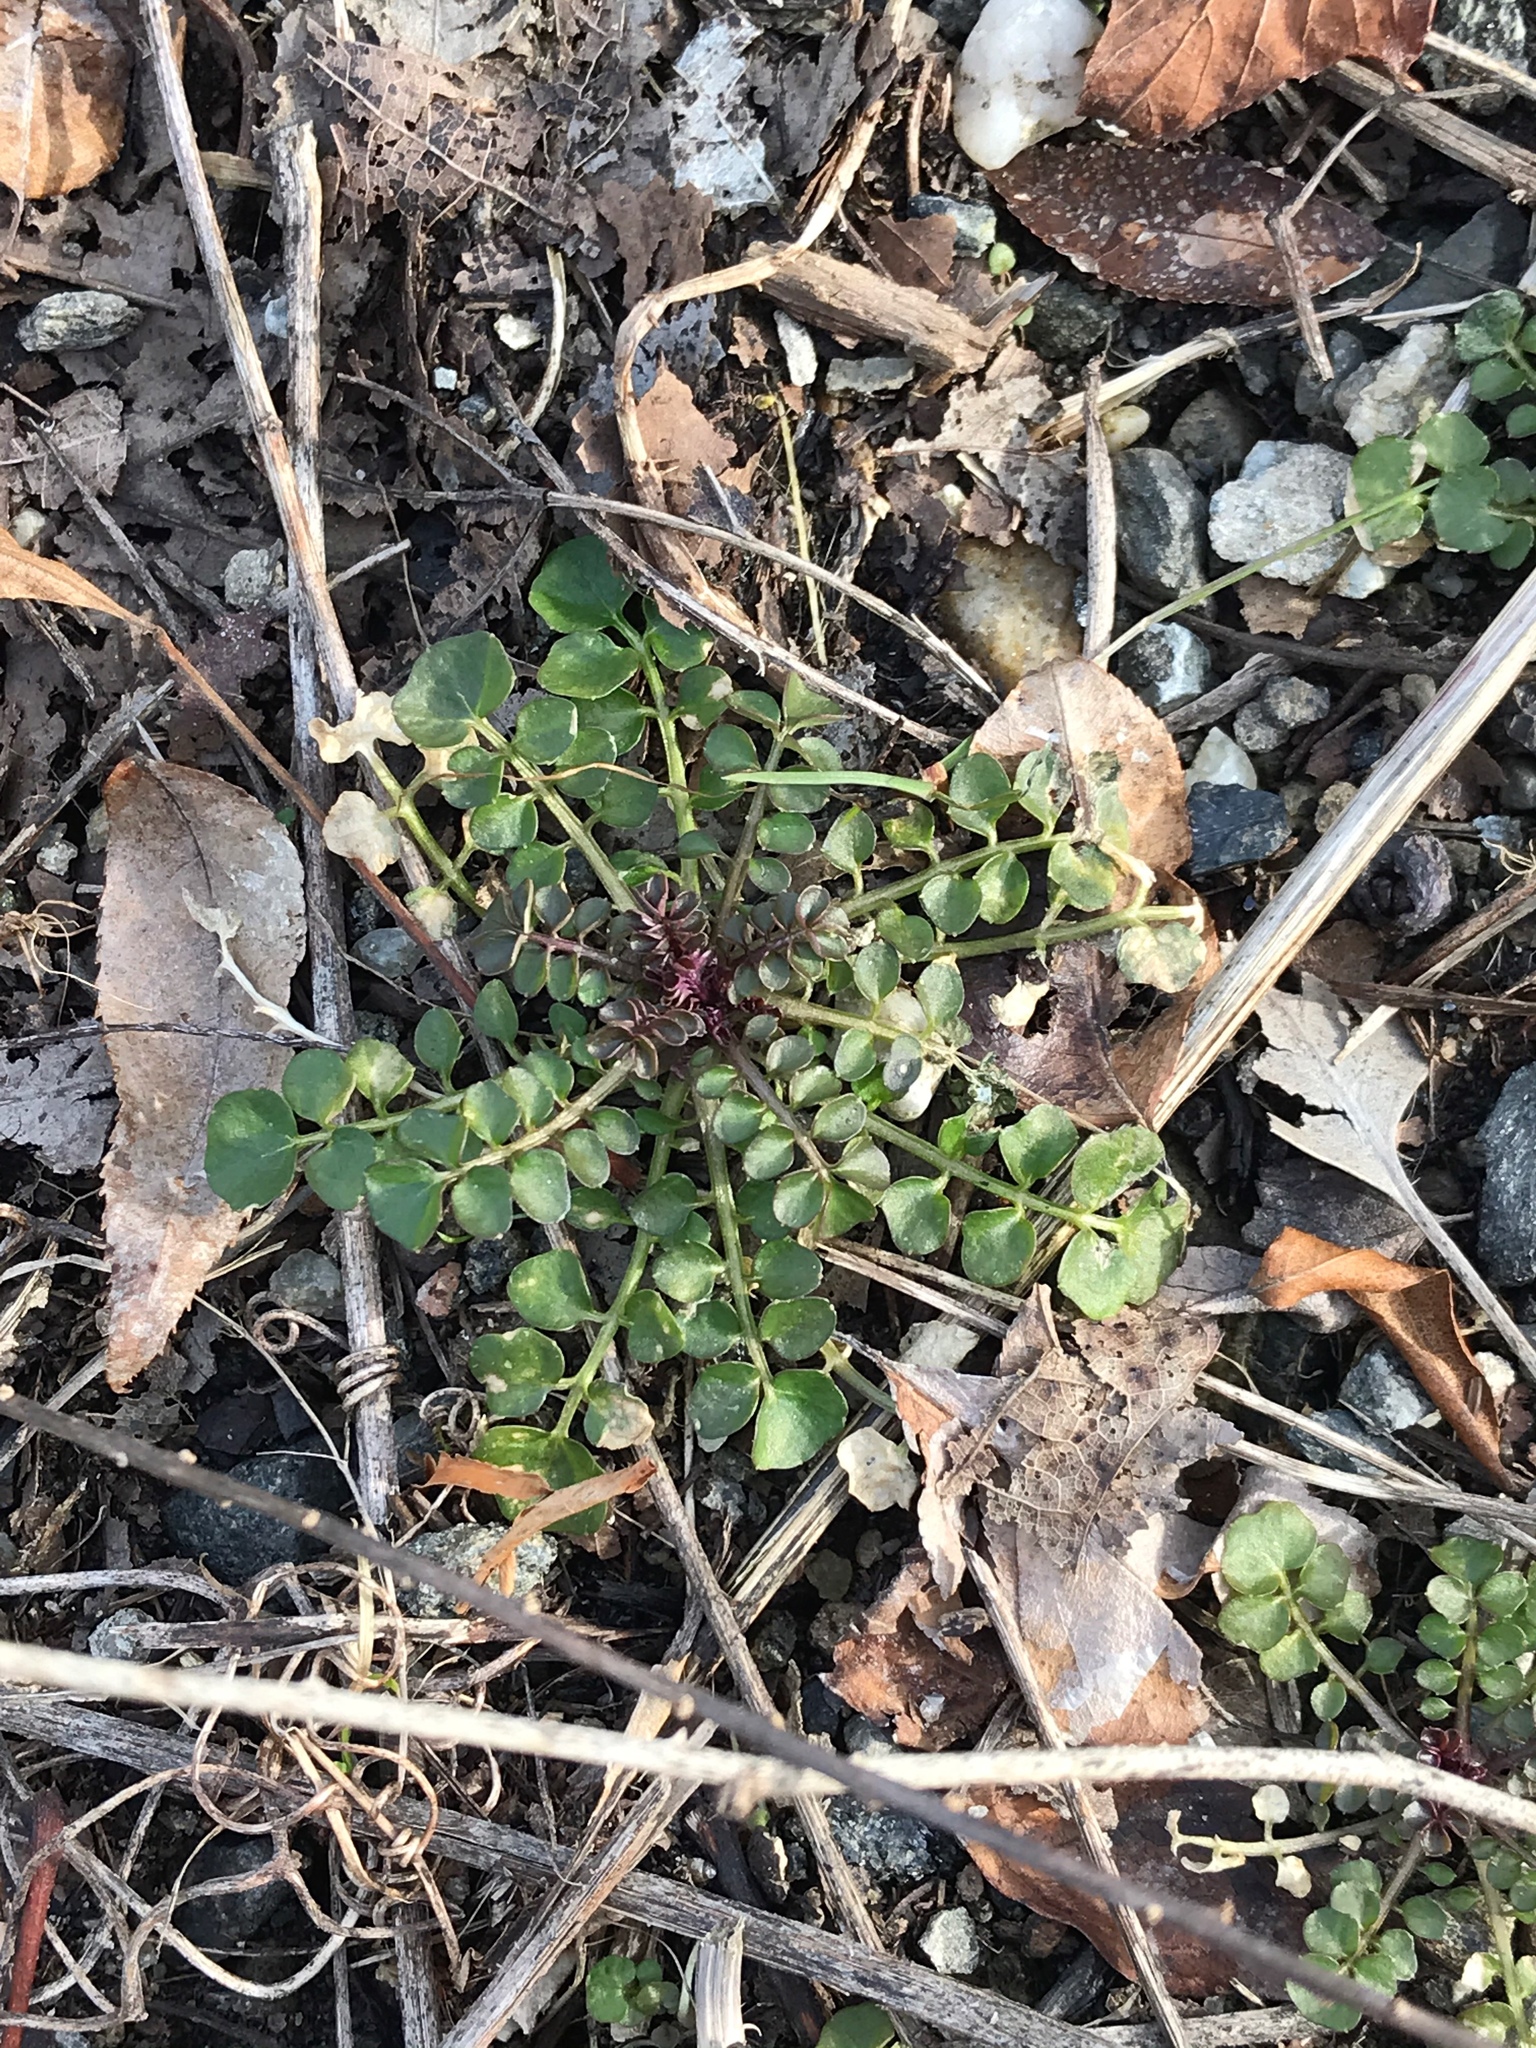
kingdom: Plantae
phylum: Tracheophyta
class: Magnoliopsida
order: Brassicales
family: Brassicaceae
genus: Cardamine
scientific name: Cardamine hirsuta
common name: Hairy bittercress
